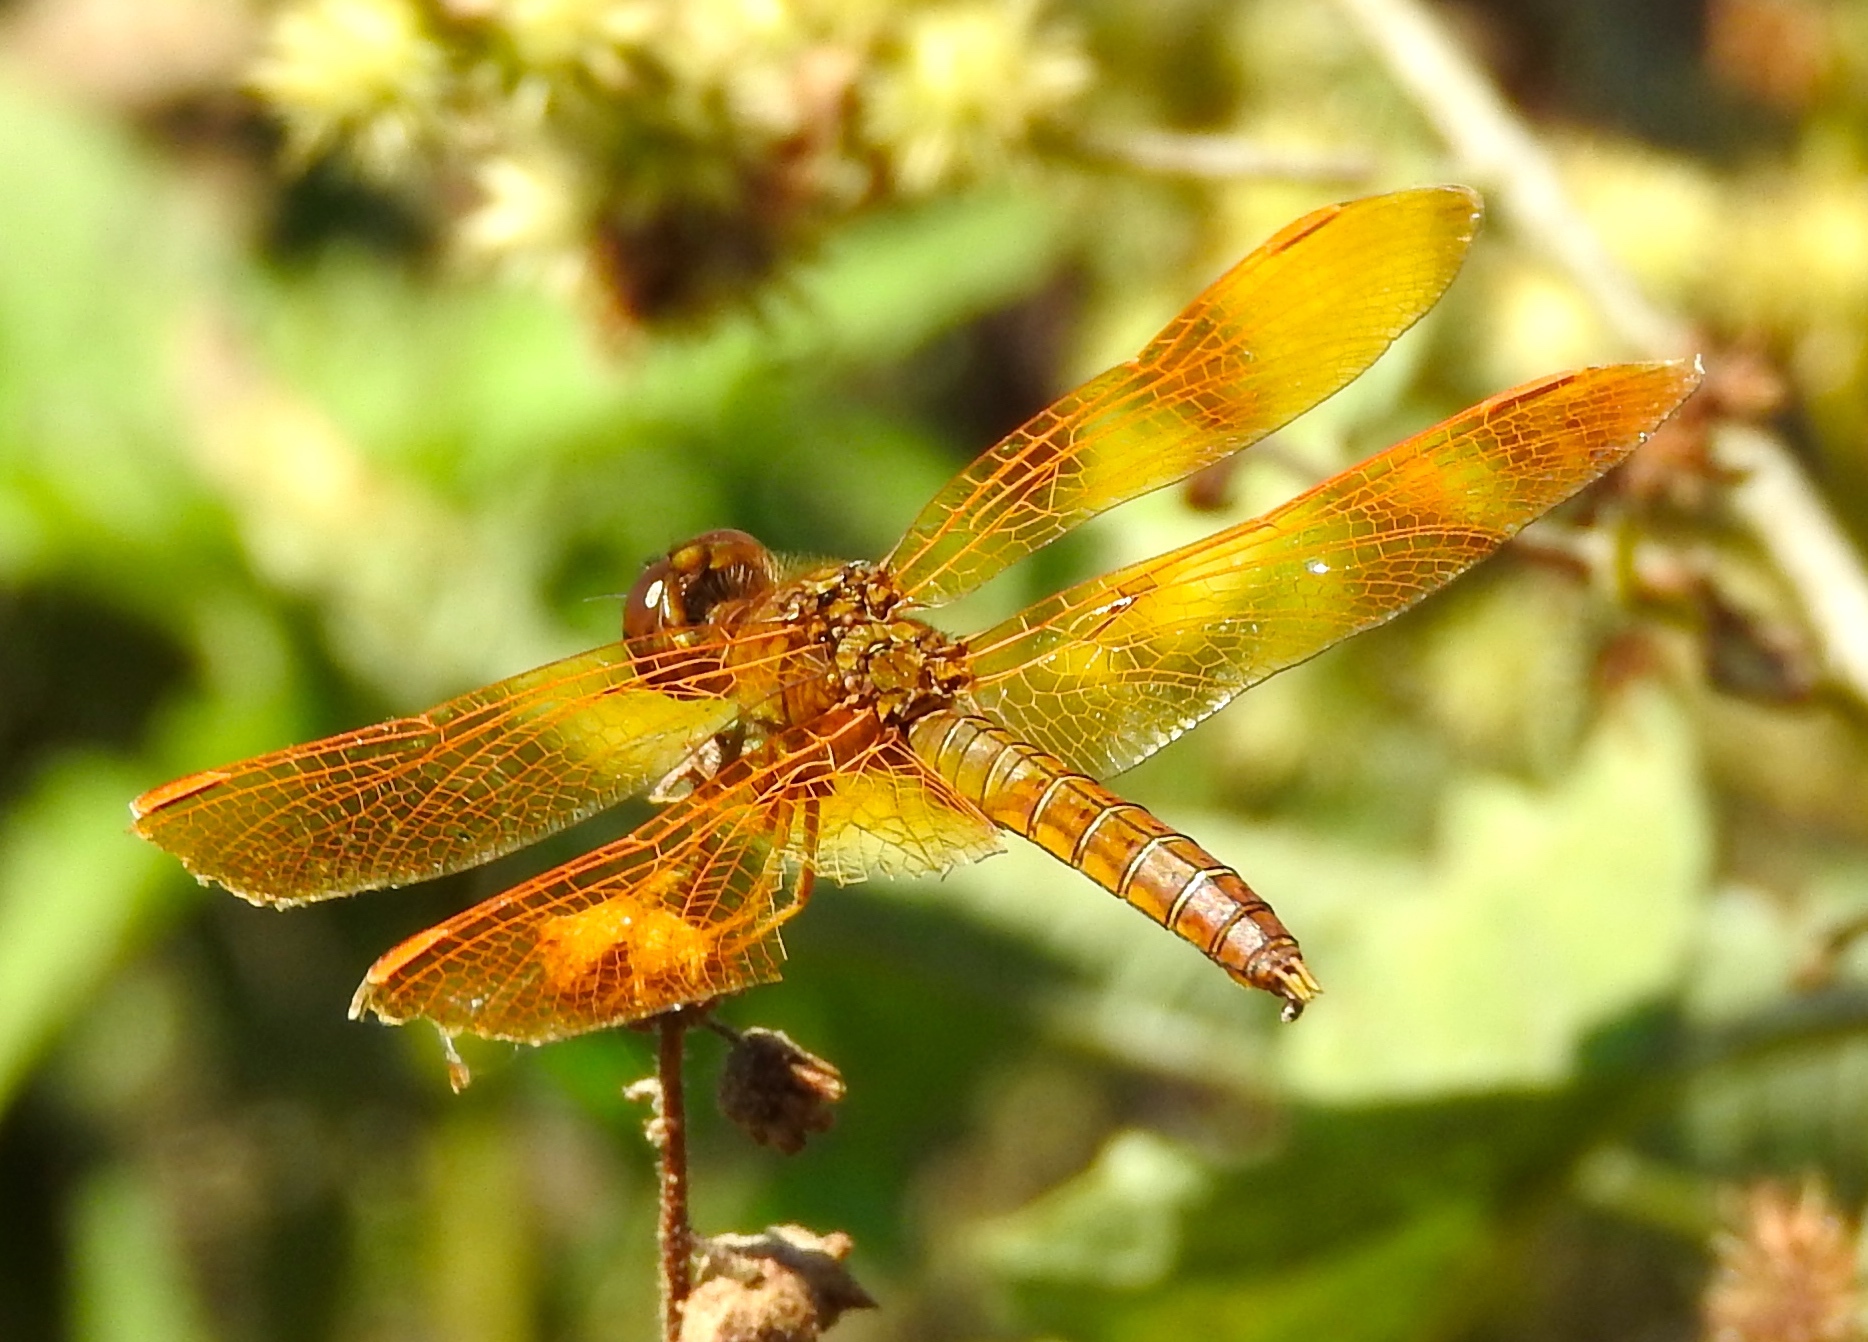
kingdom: Animalia
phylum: Arthropoda
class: Insecta
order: Odonata
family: Libellulidae
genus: Perithemis
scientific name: Perithemis intensa
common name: Mexican amberwing
